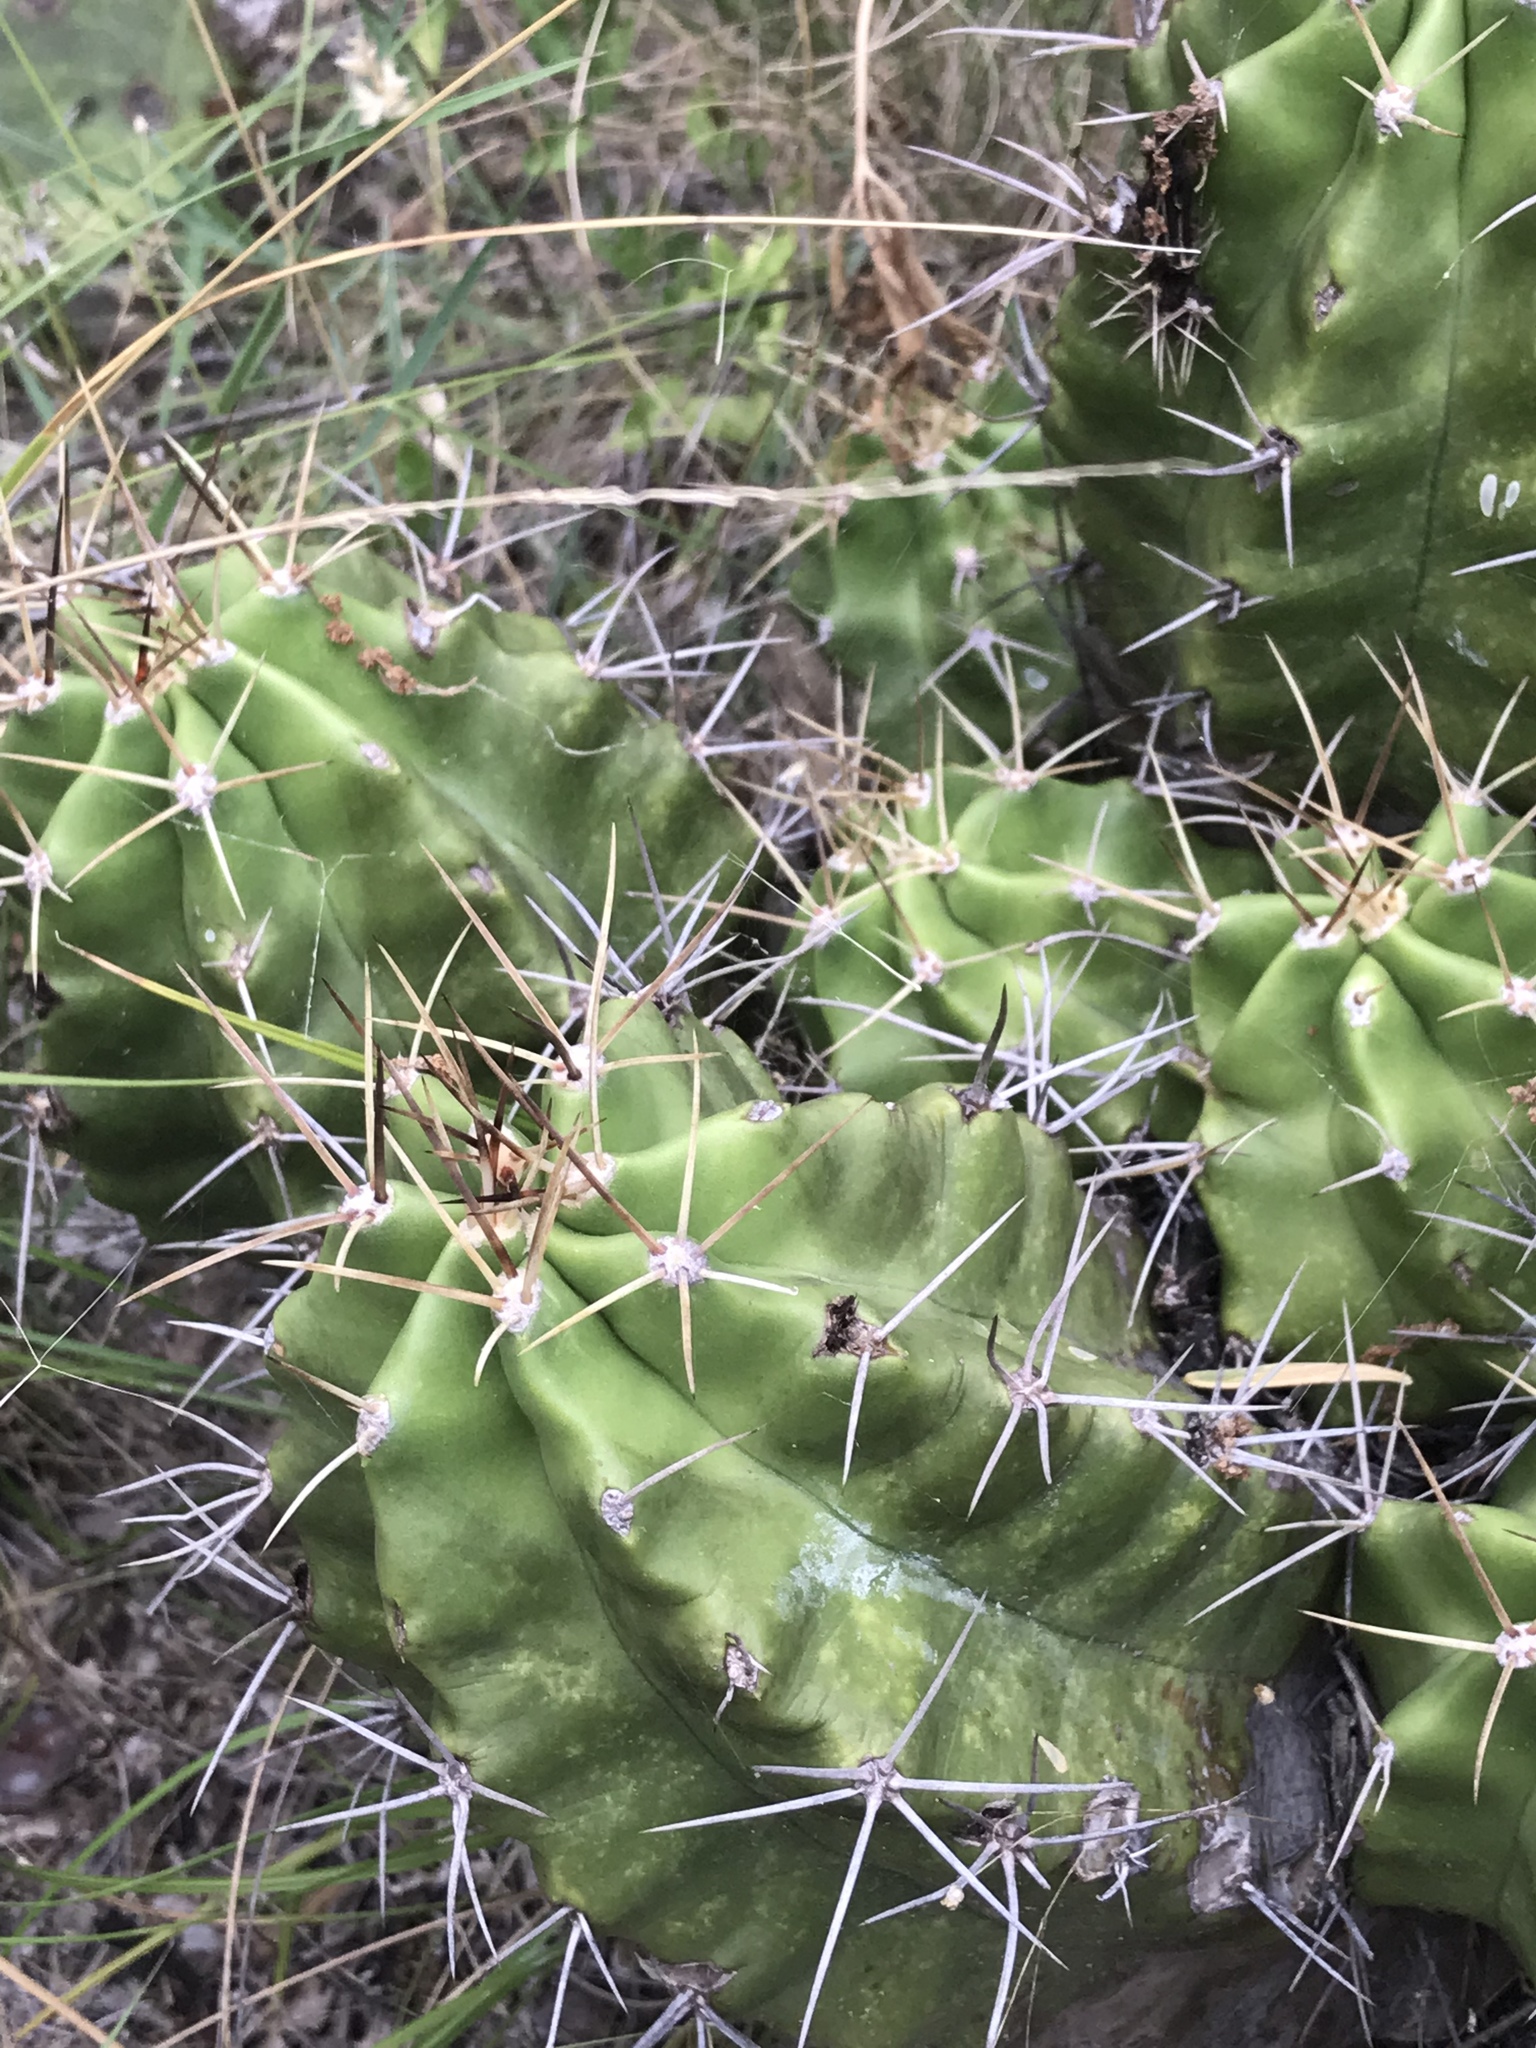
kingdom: Plantae
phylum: Tracheophyta
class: Magnoliopsida
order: Caryophyllales
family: Cactaceae
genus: Echinocereus
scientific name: Echinocereus coccineus
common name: Scarlet hedgehog cactus
